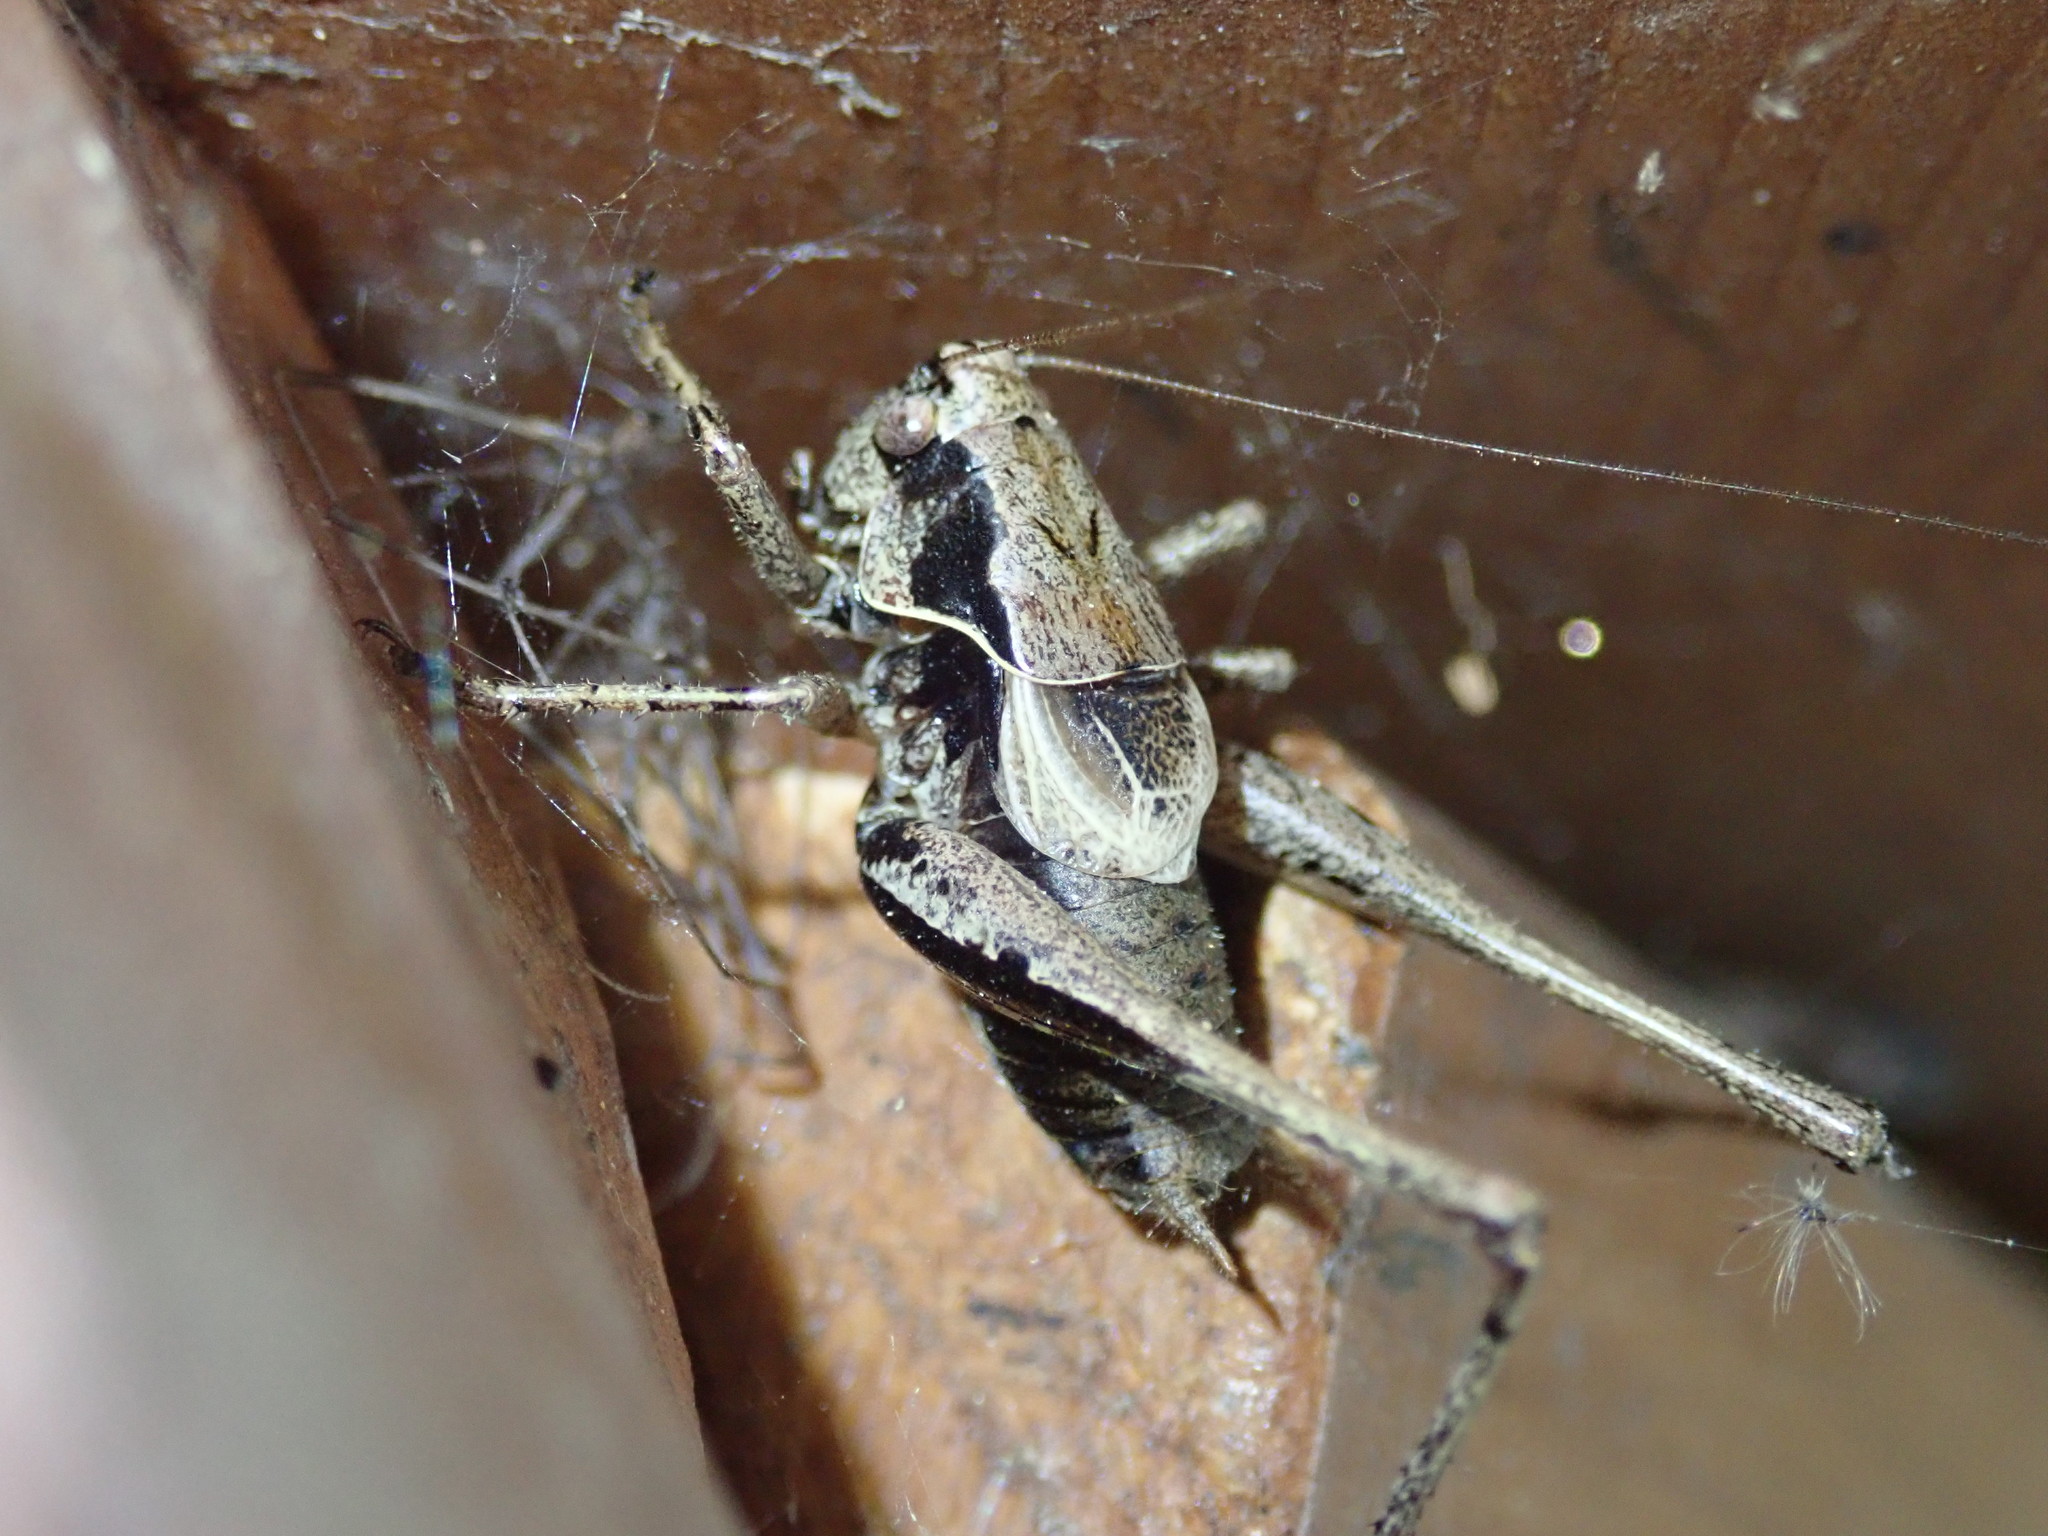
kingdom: Animalia
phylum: Arthropoda
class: Insecta
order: Orthoptera
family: Tettigoniidae
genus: Pholidoptera
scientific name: Pholidoptera griseoaptera
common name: Dark bush-cricket
